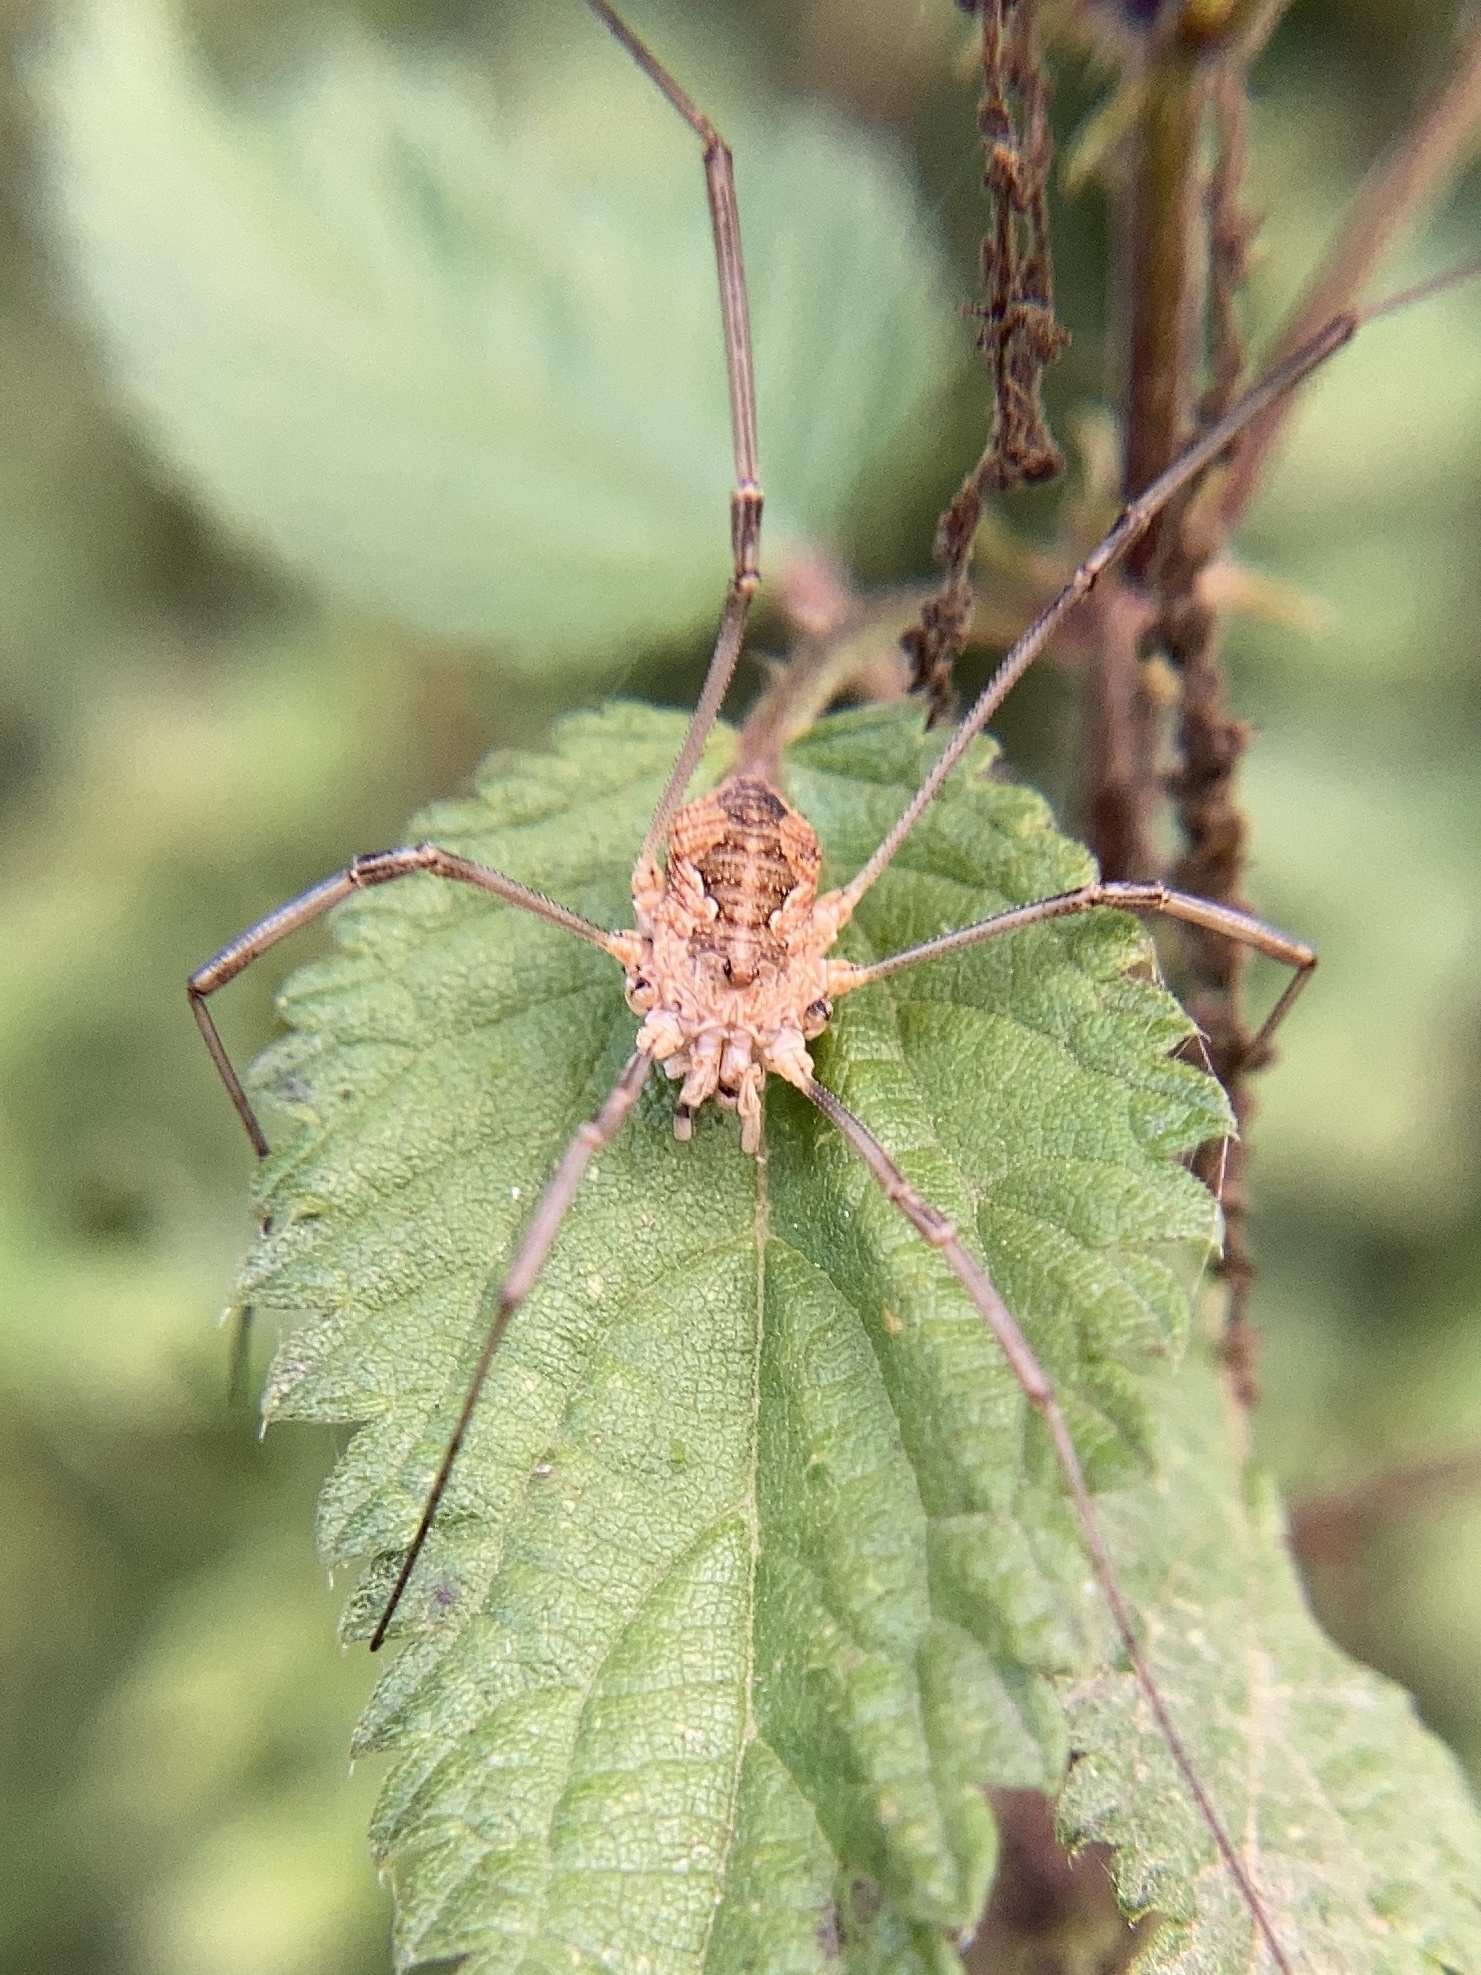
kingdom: Animalia
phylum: Arthropoda
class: Arachnida
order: Opiliones
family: Phalangiidae
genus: Phalangium
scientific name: Phalangium opilio
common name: Daddy longleg
